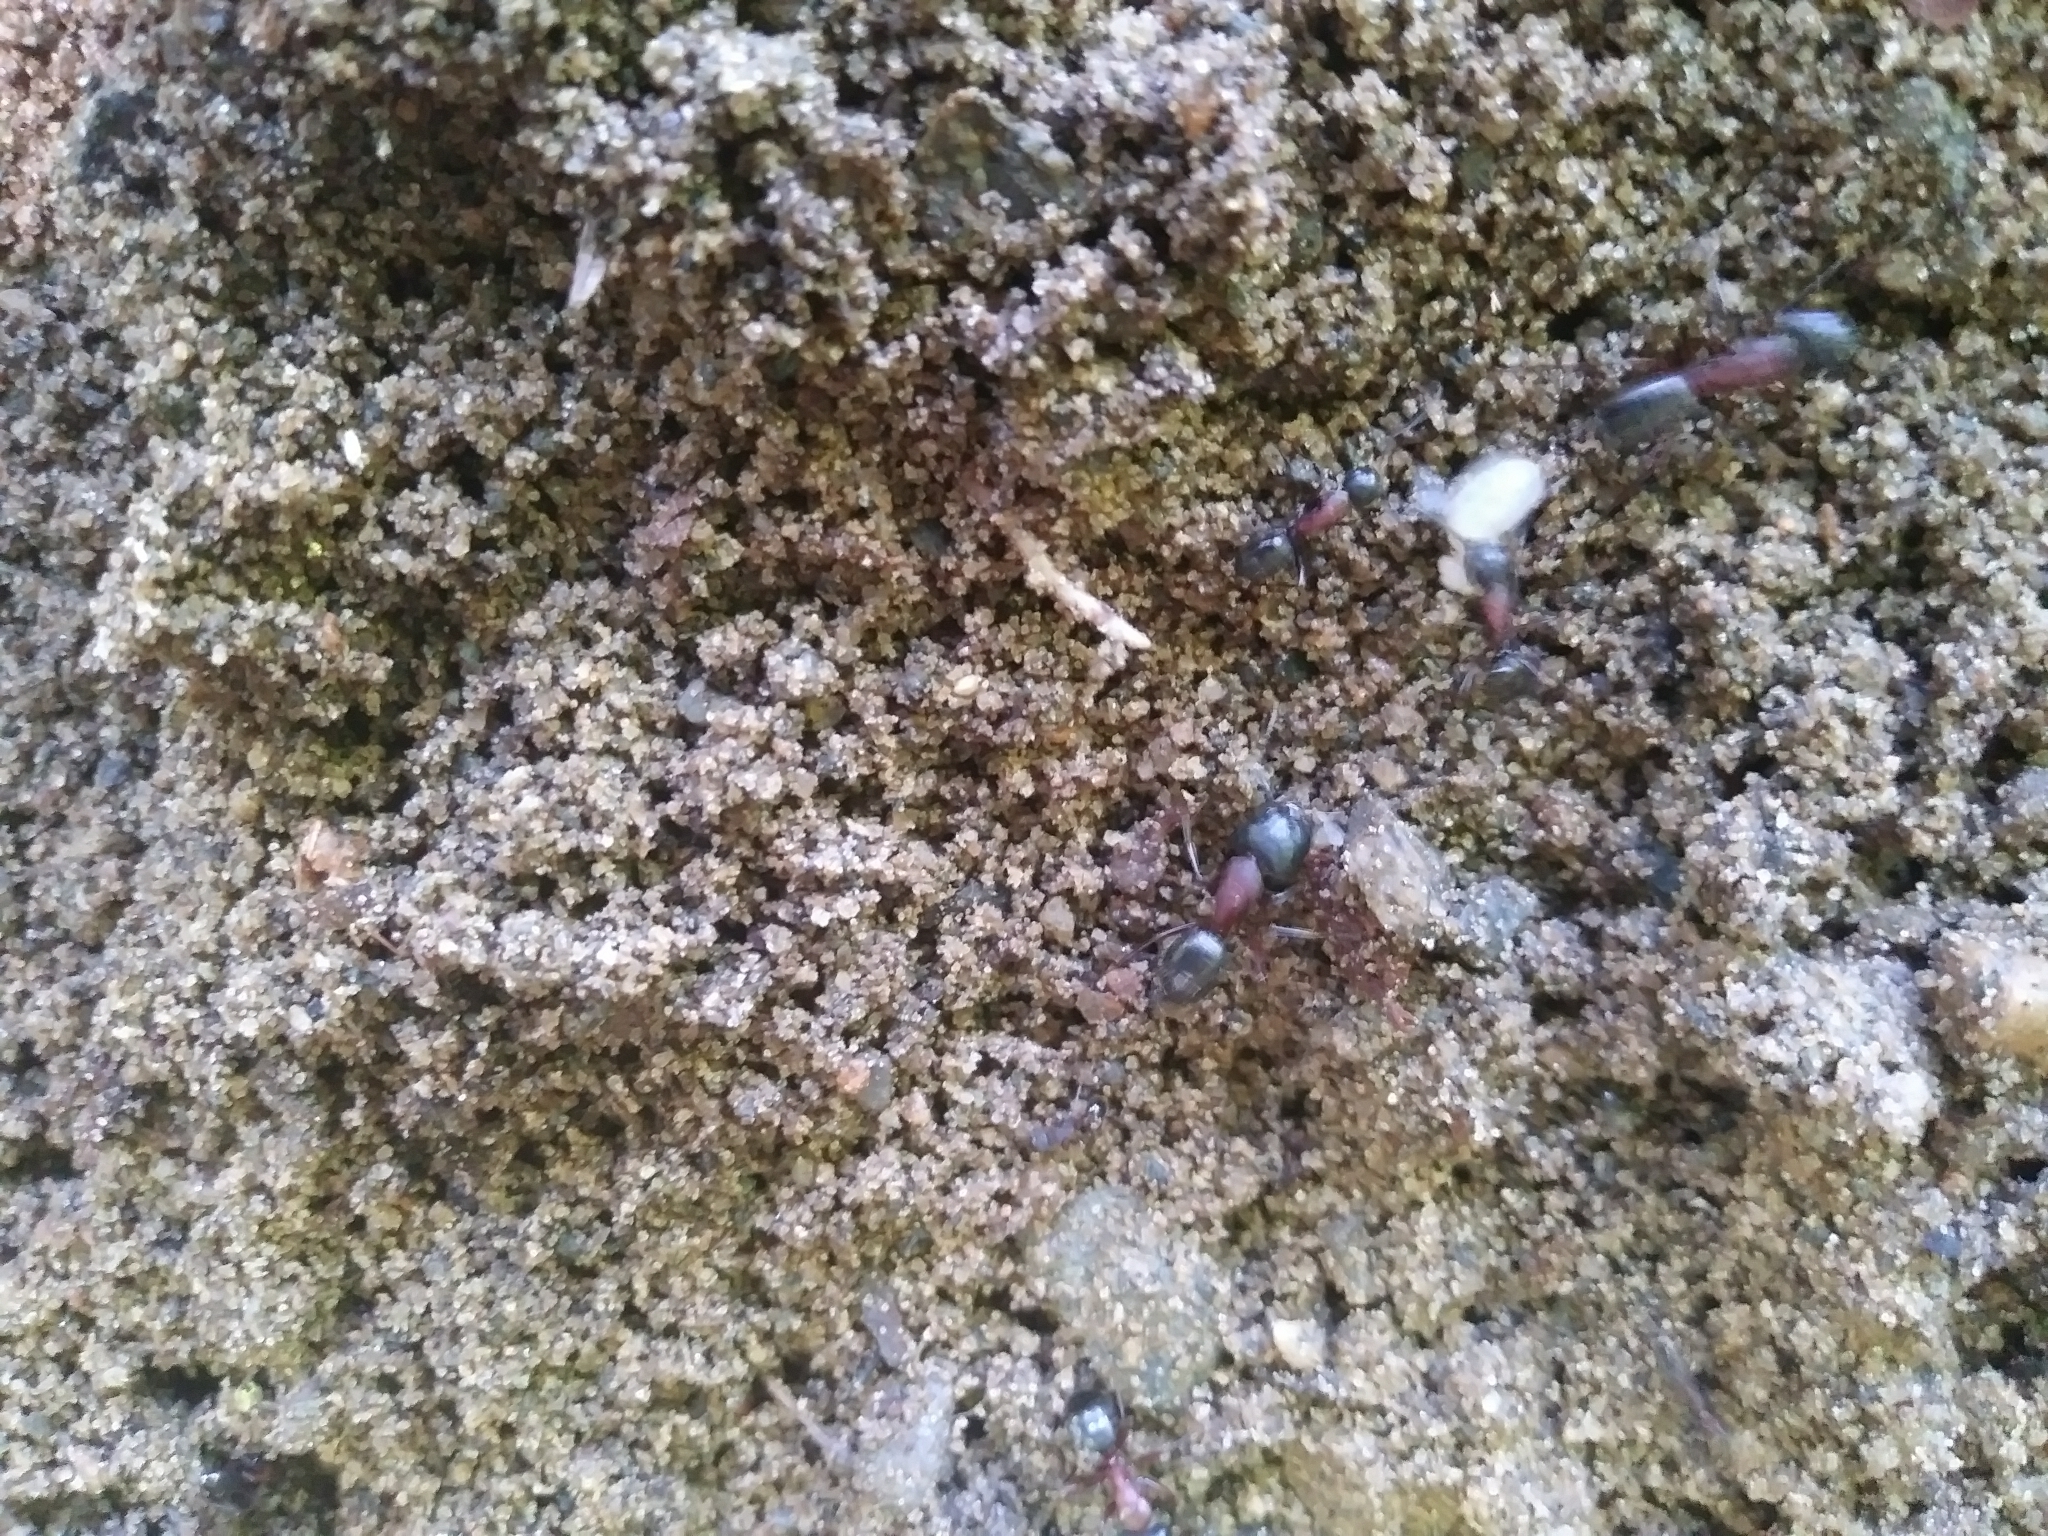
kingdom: Animalia
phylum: Arthropoda
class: Insecta
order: Hymenoptera
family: Formicidae
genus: Camponotus
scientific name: Camponotus novaeboracensis
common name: New york carpenter ant
